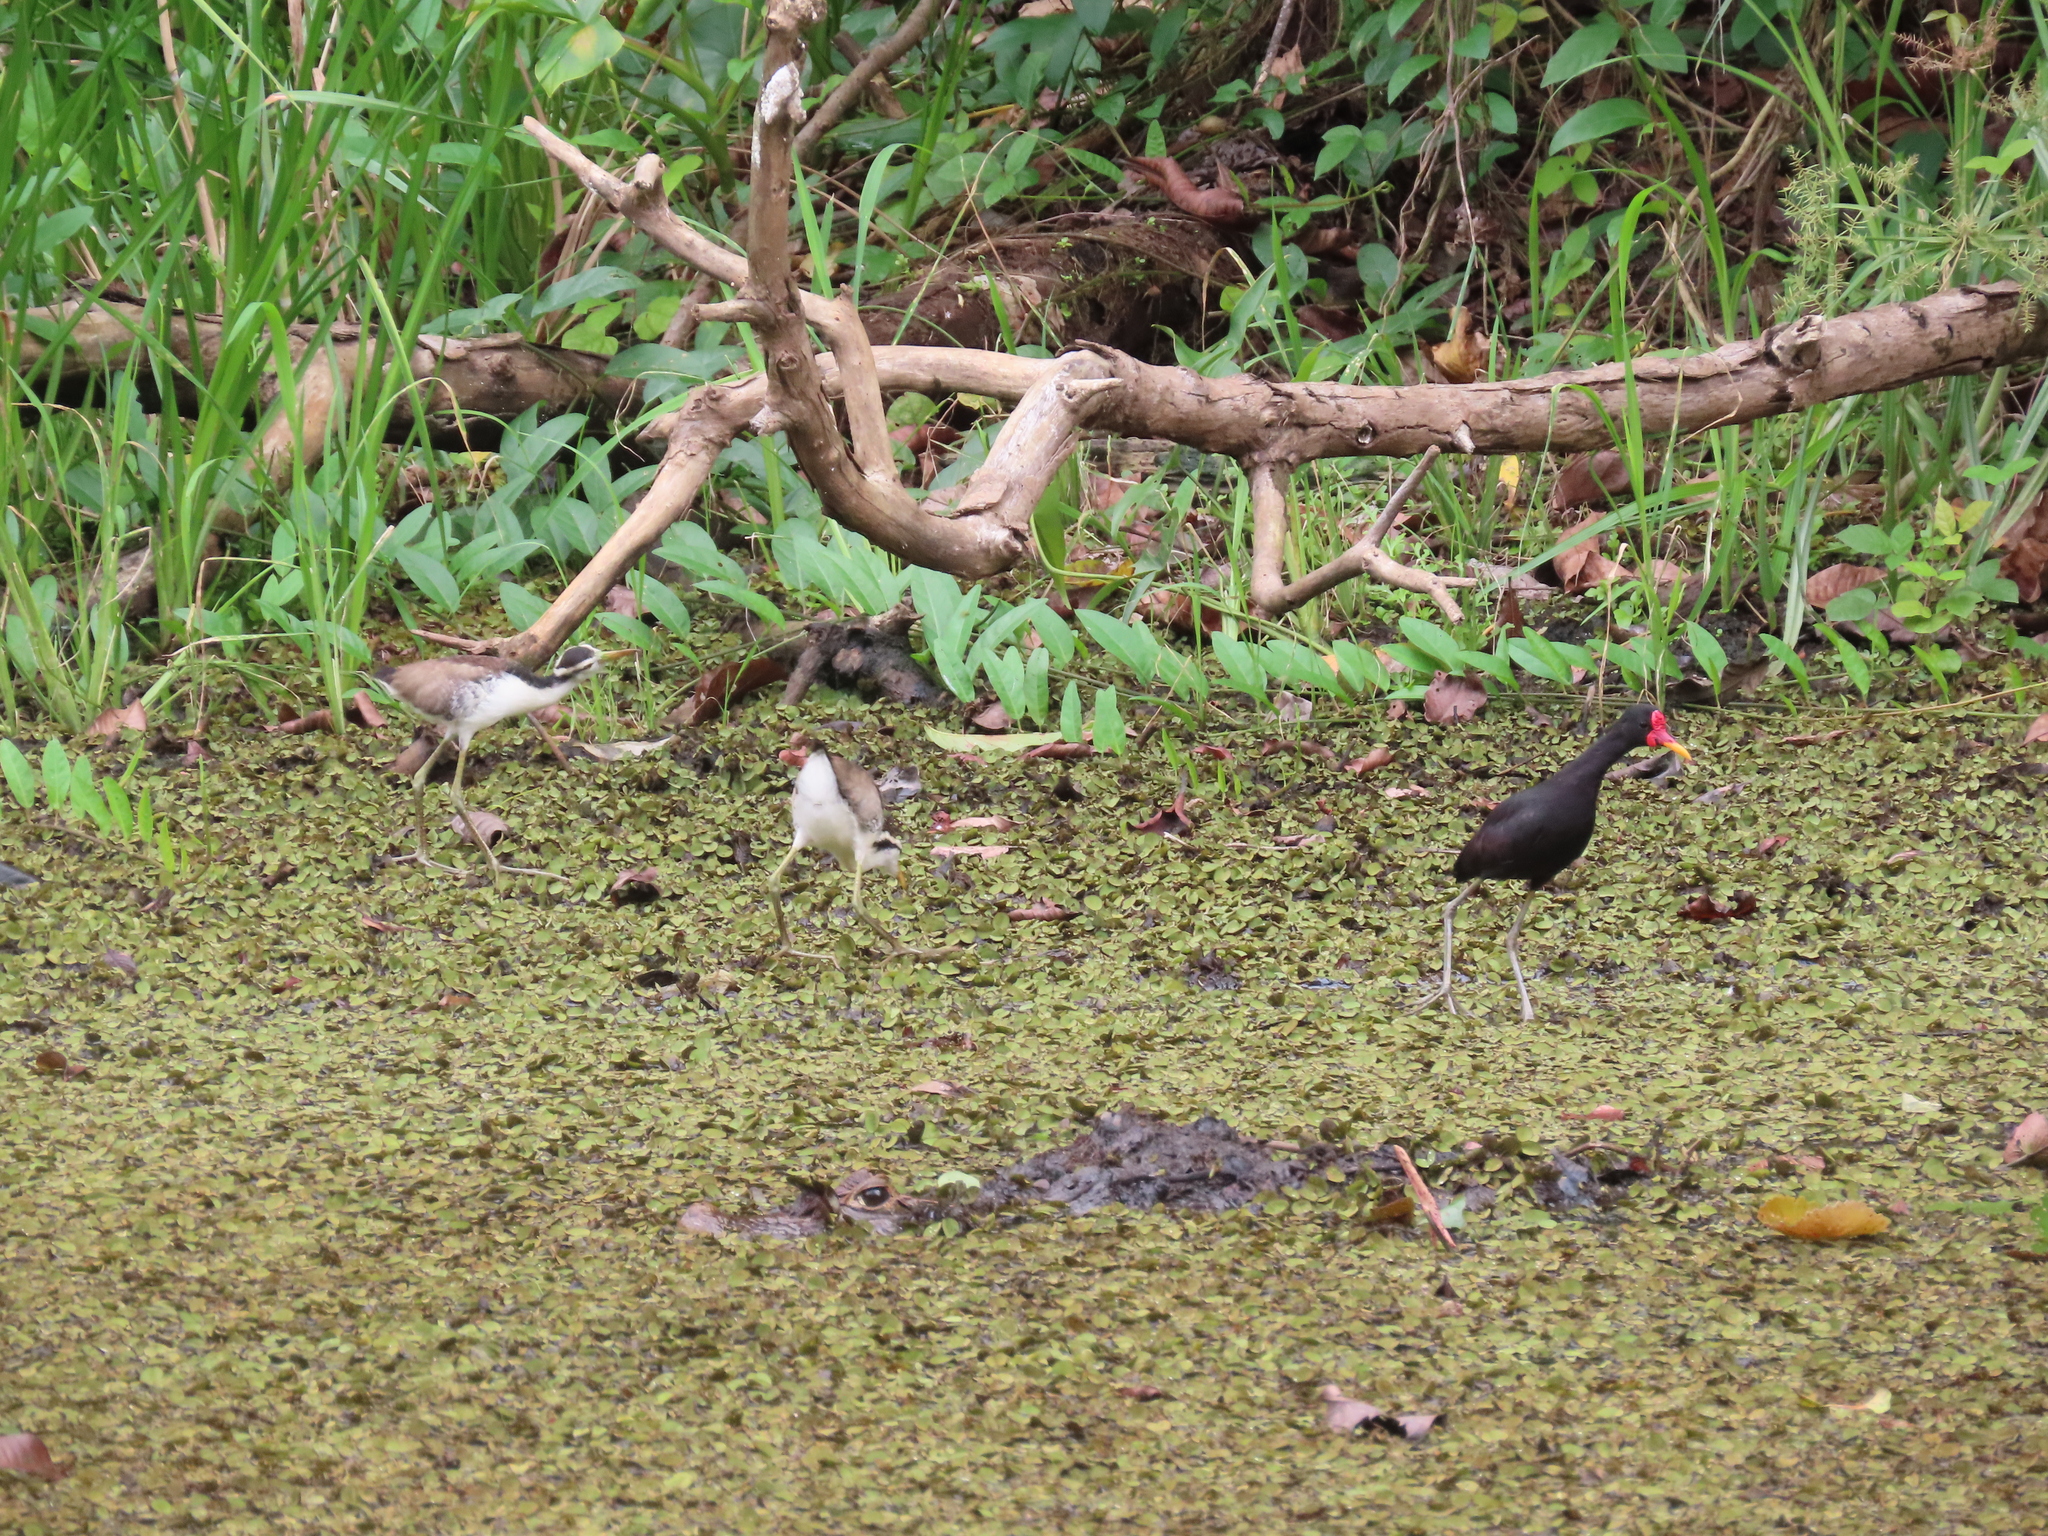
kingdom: Animalia
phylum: Chordata
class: Aves
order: Charadriiformes
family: Jacanidae
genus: Jacana
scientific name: Jacana jacana
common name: Wattled jacana
